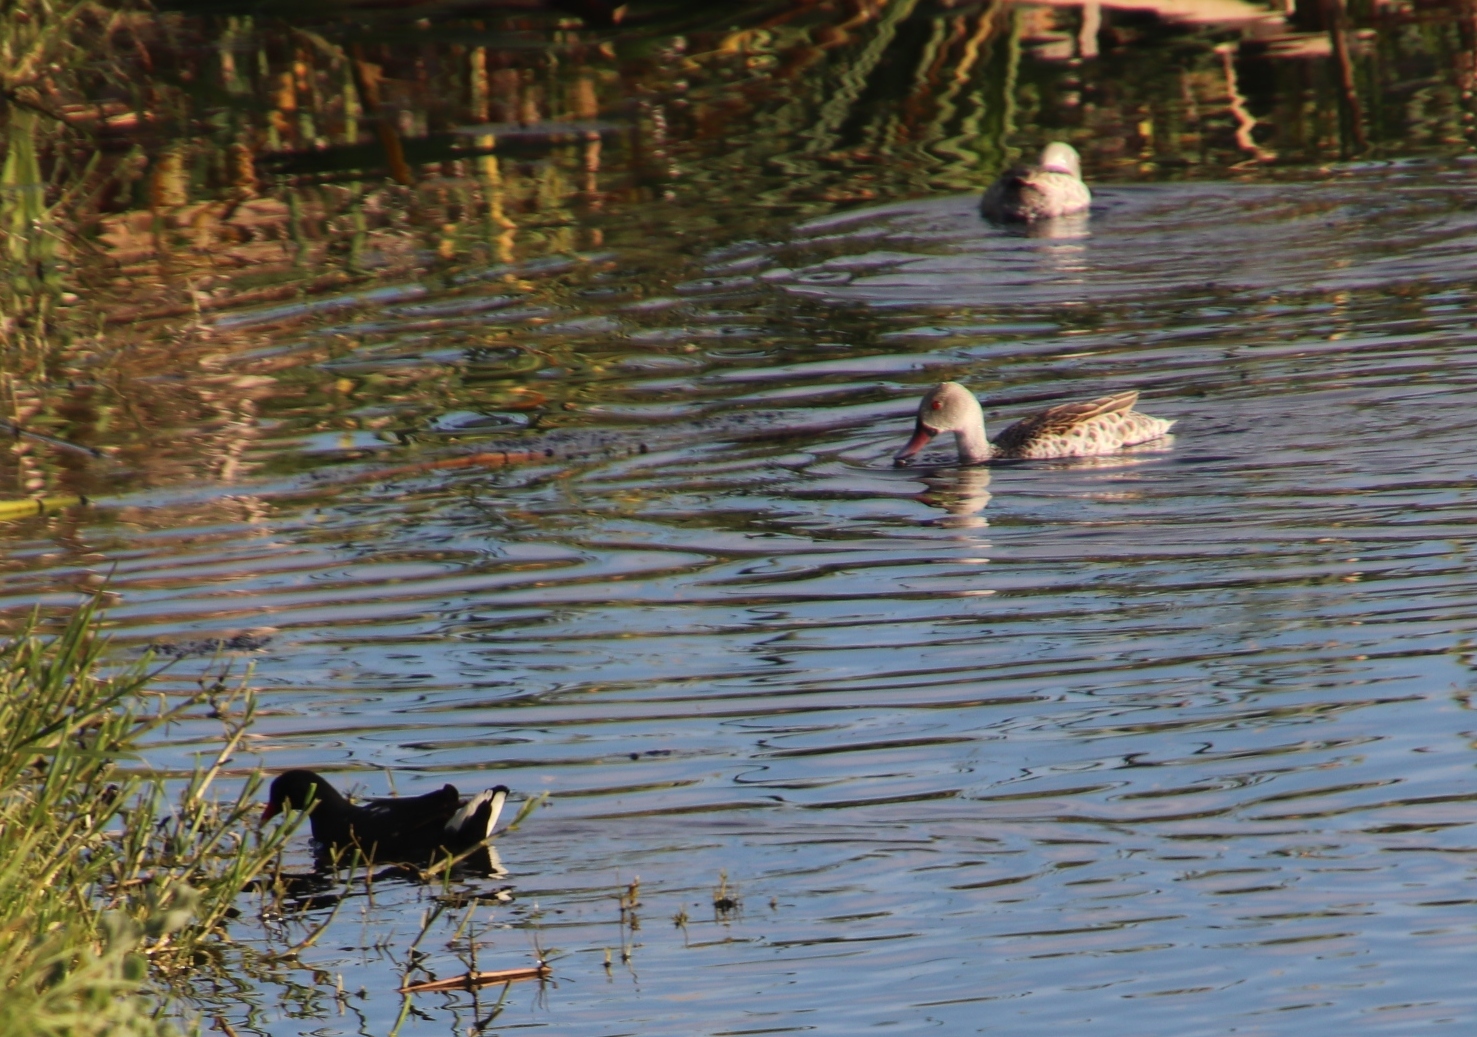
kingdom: Animalia
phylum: Chordata
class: Aves
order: Anseriformes
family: Anatidae
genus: Anas
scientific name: Anas capensis
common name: Cape teal
